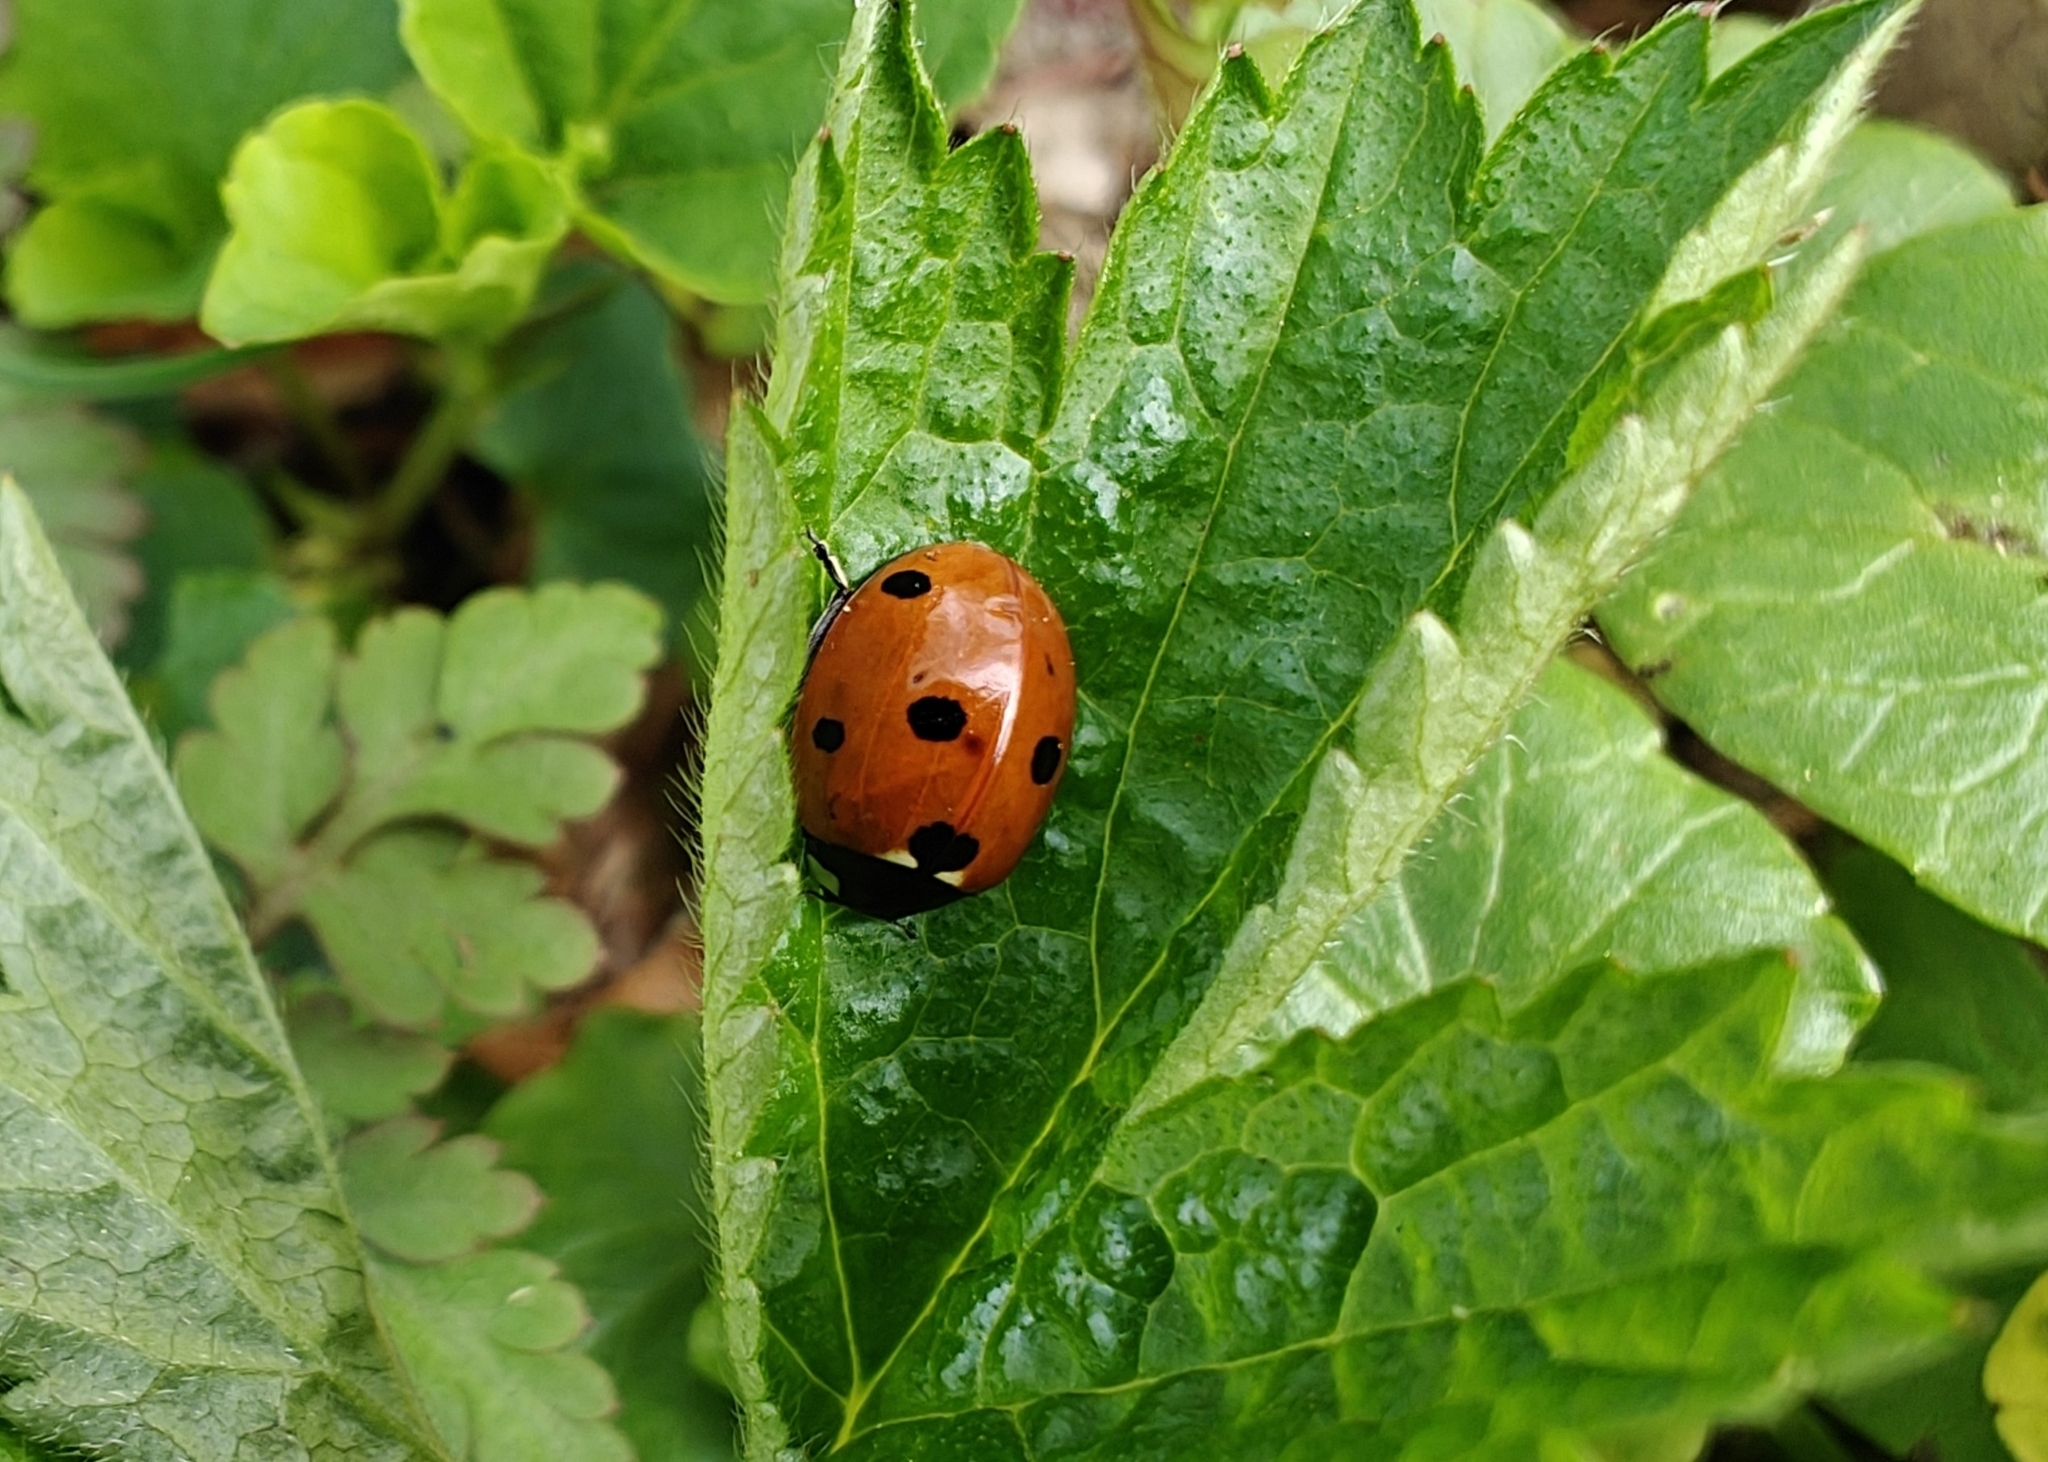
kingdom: Animalia
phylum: Arthropoda
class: Insecta
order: Coleoptera
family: Coccinellidae
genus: Coccinella
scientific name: Coccinella septempunctata
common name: Sevenspotted lady beetle
